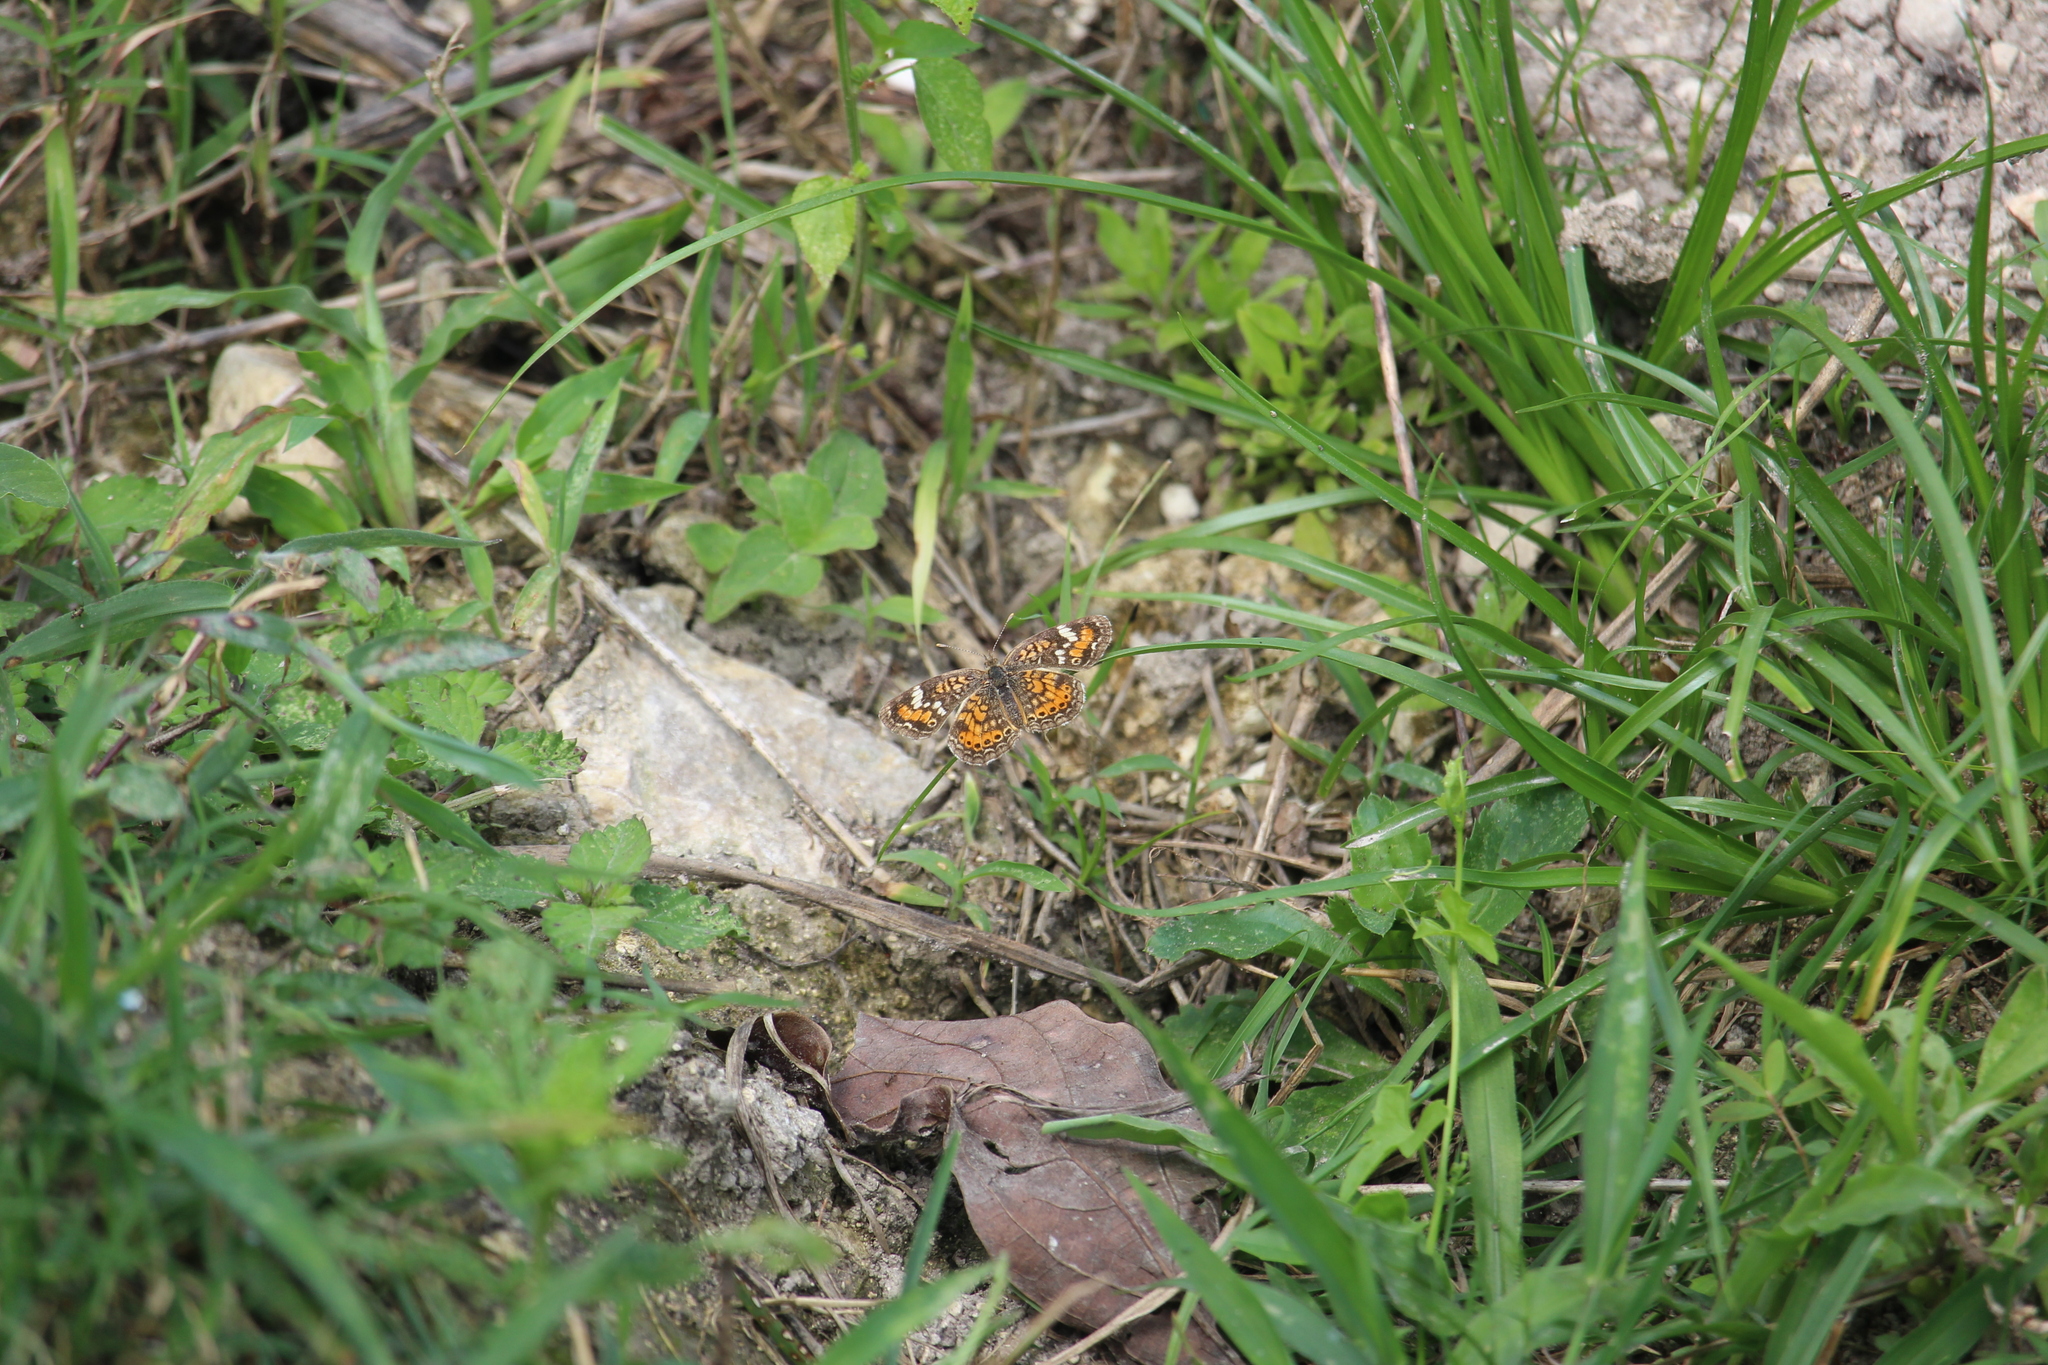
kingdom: Animalia
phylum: Arthropoda
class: Insecta
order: Lepidoptera
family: Nymphalidae
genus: Phyciodes
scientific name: Phyciodes phaon
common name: Phaon crescent
